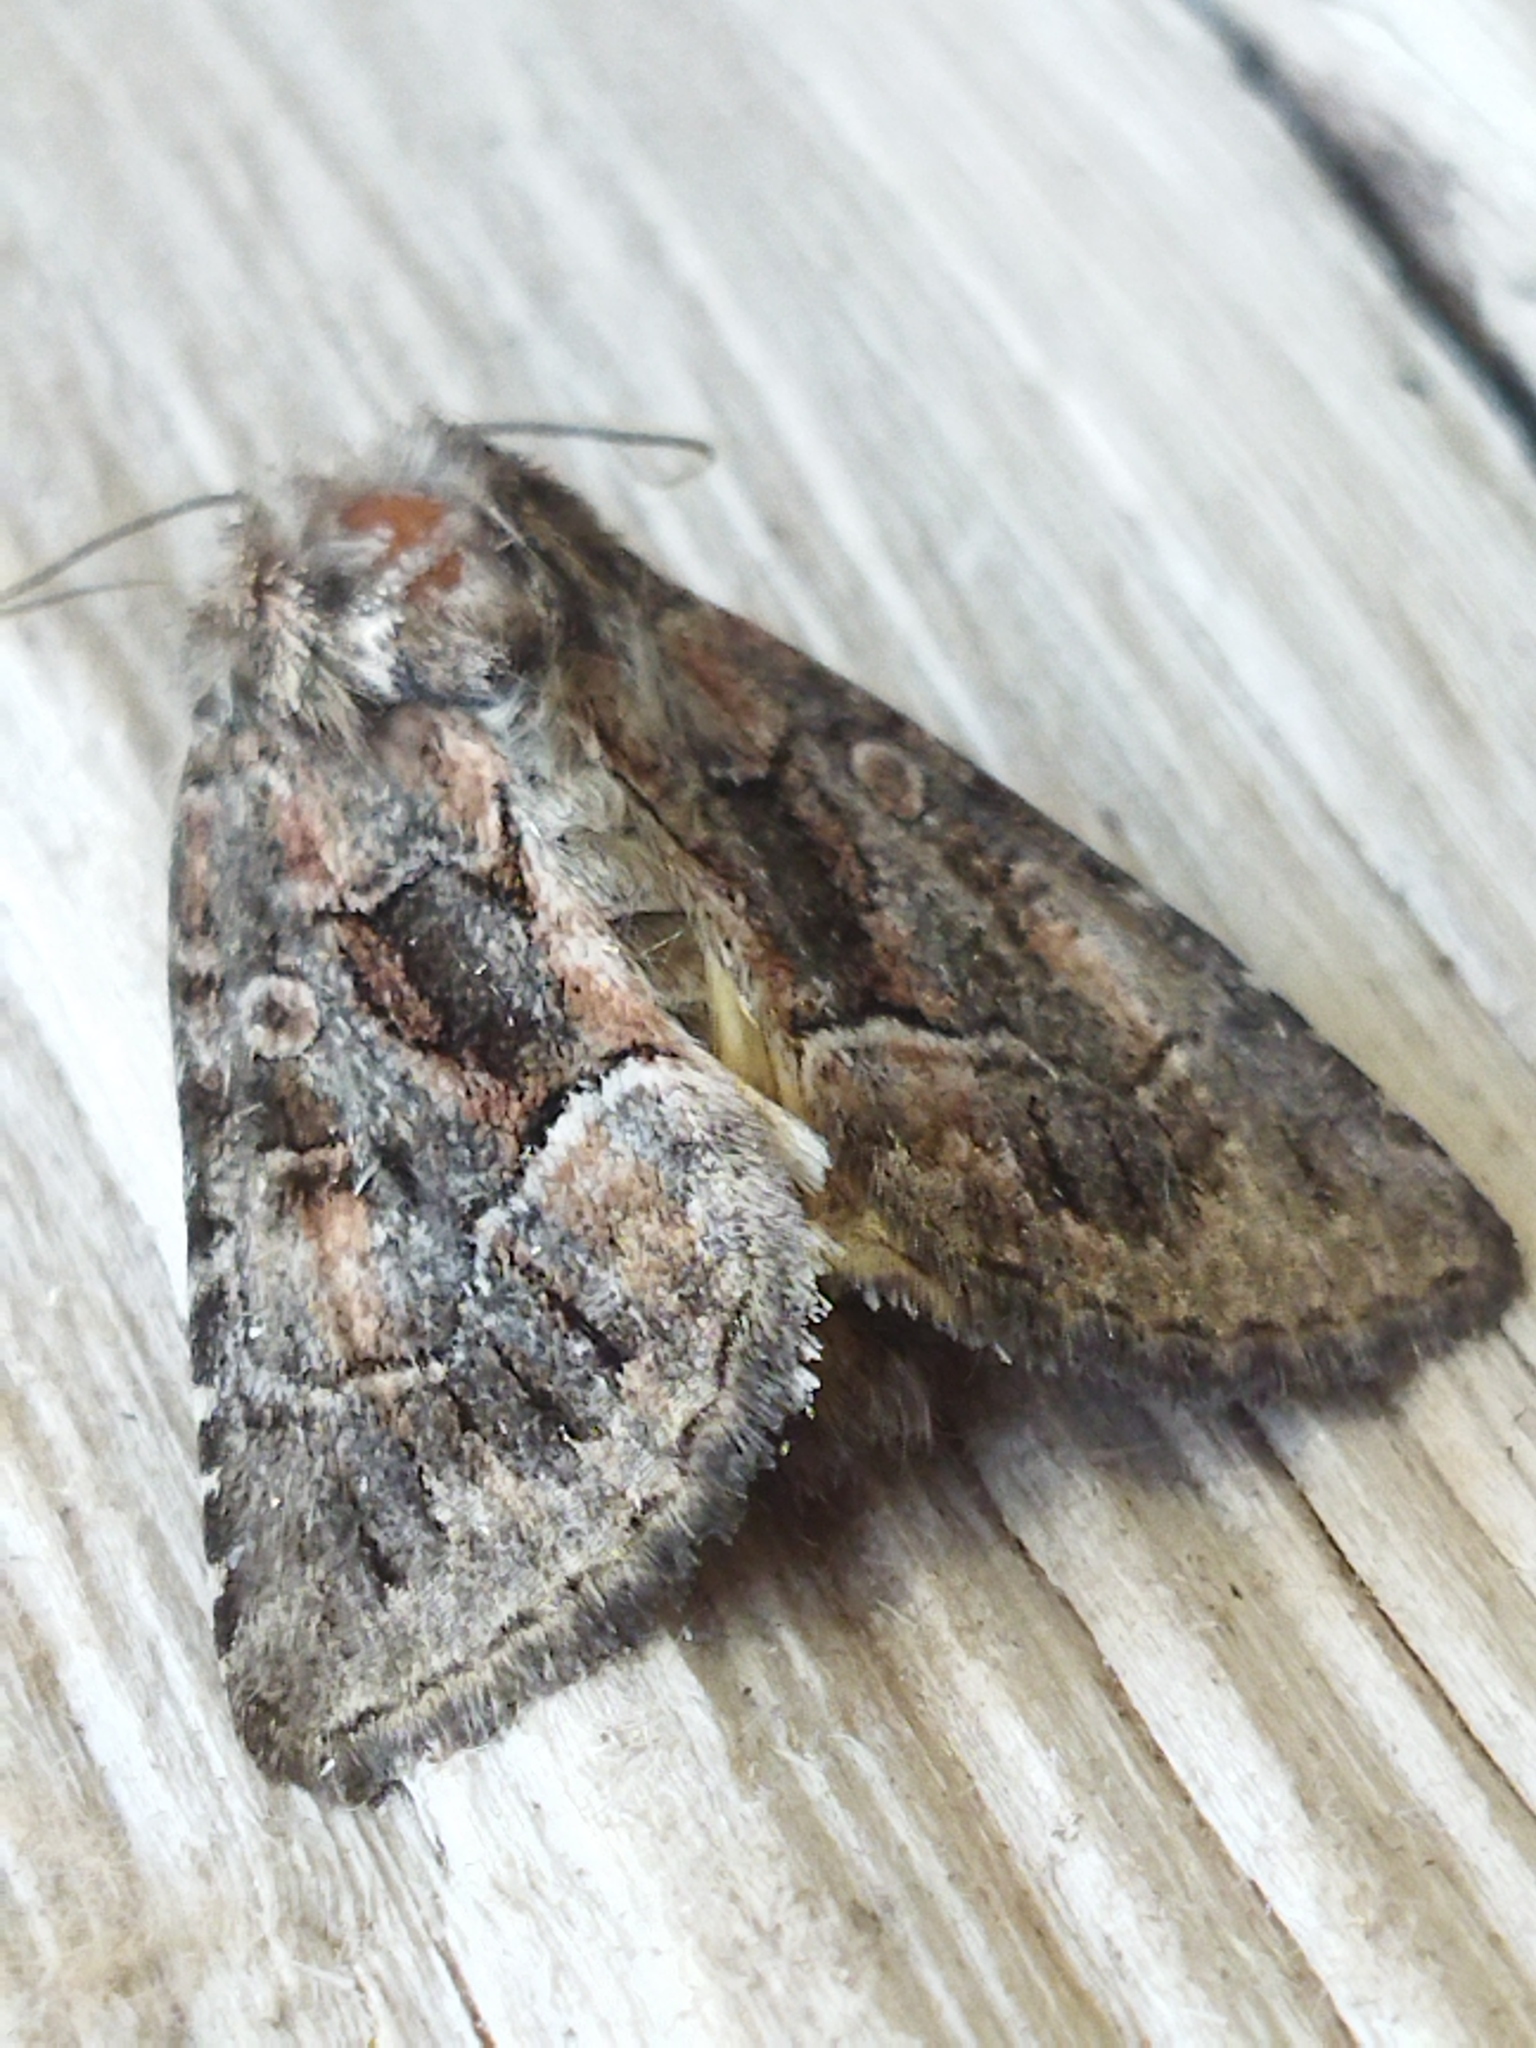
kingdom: Animalia
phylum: Arthropoda
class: Insecta
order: Lepidoptera
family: Noctuidae
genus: Thalpophila
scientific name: Thalpophila matura
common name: Straw underwing
